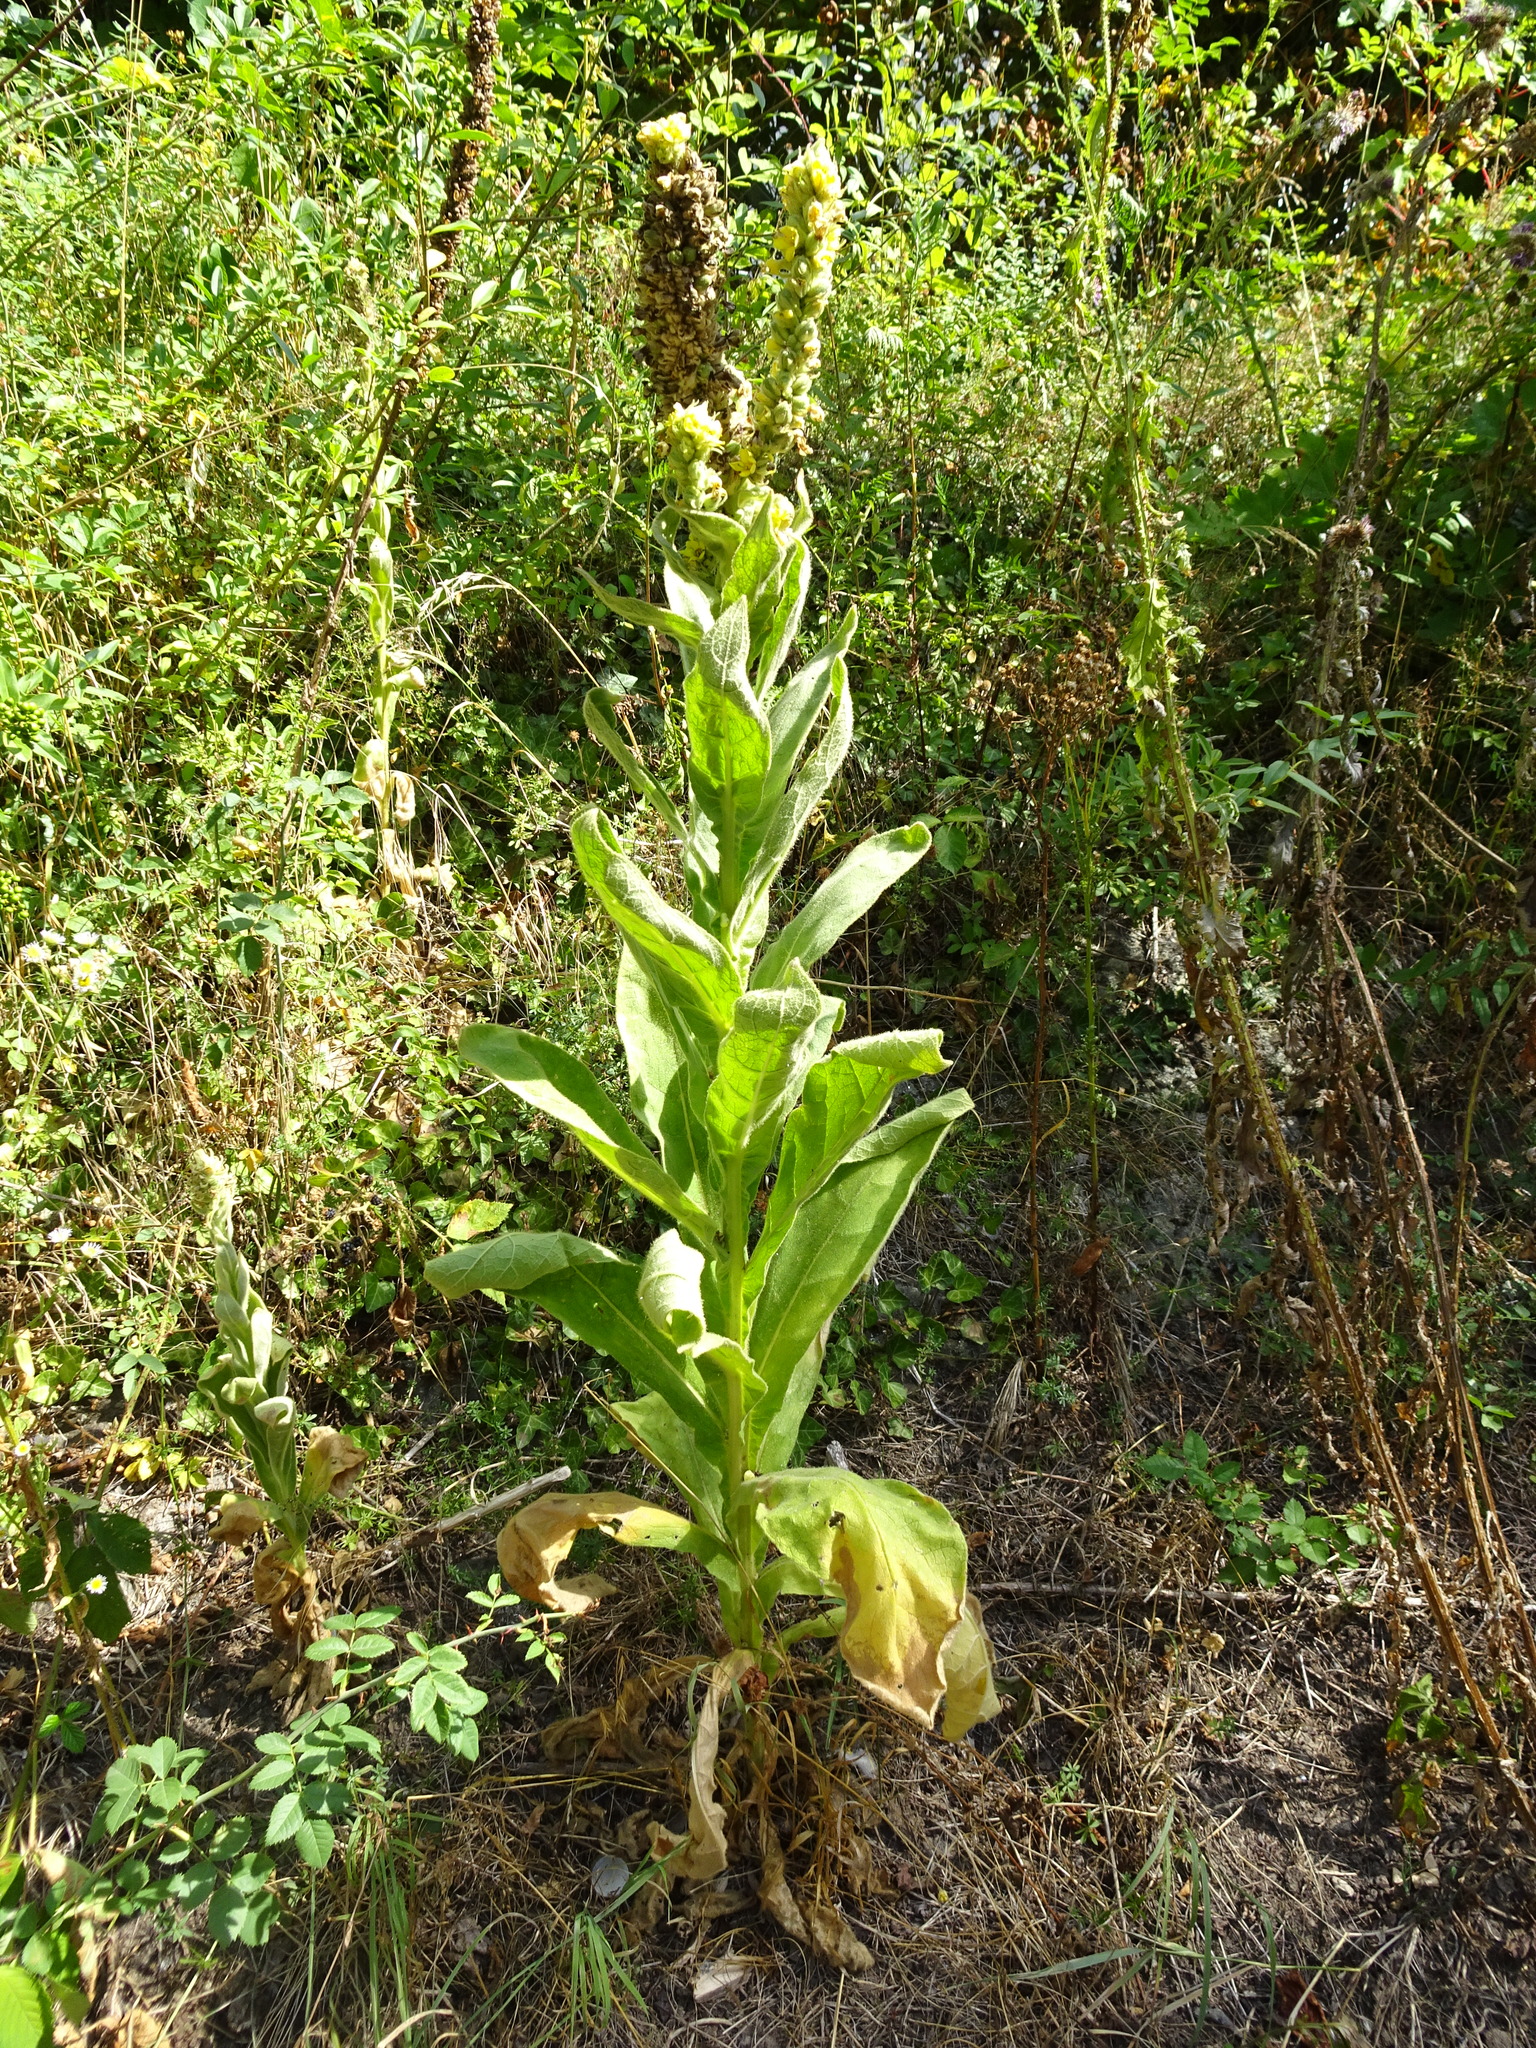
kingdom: Plantae
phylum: Tracheophyta
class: Magnoliopsida
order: Lamiales
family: Scrophulariaceae
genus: Verbascum
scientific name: Verbascum thapsus
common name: Common mullein
